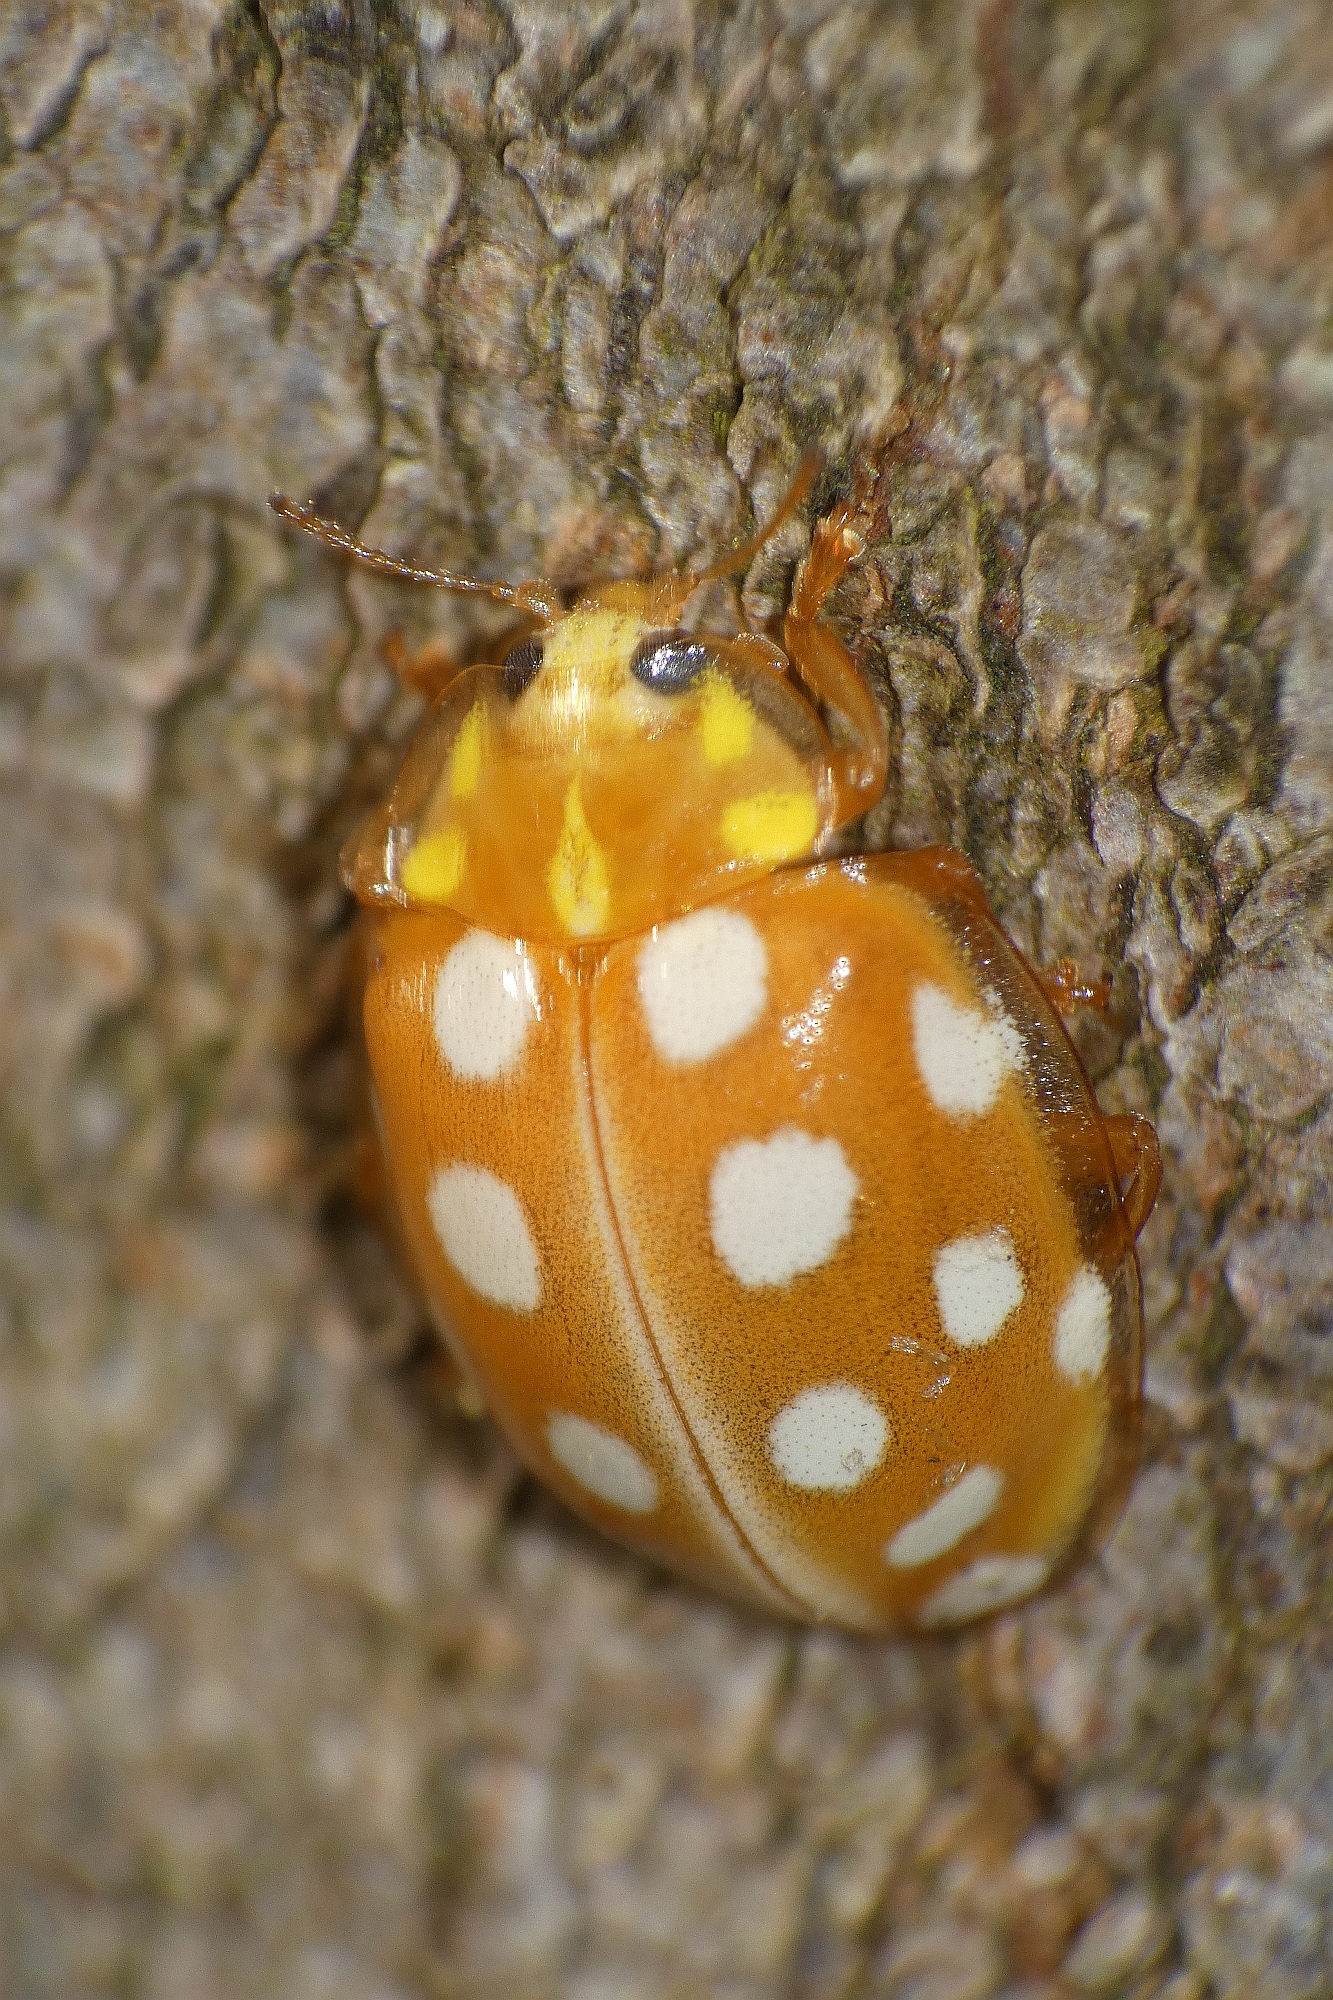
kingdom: Animalia
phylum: Arthropoda
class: Insecta
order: Coleoptera
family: Coccinellidae
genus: Halyzia
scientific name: Halyzia sedecimguttata
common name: Orange ladybird
